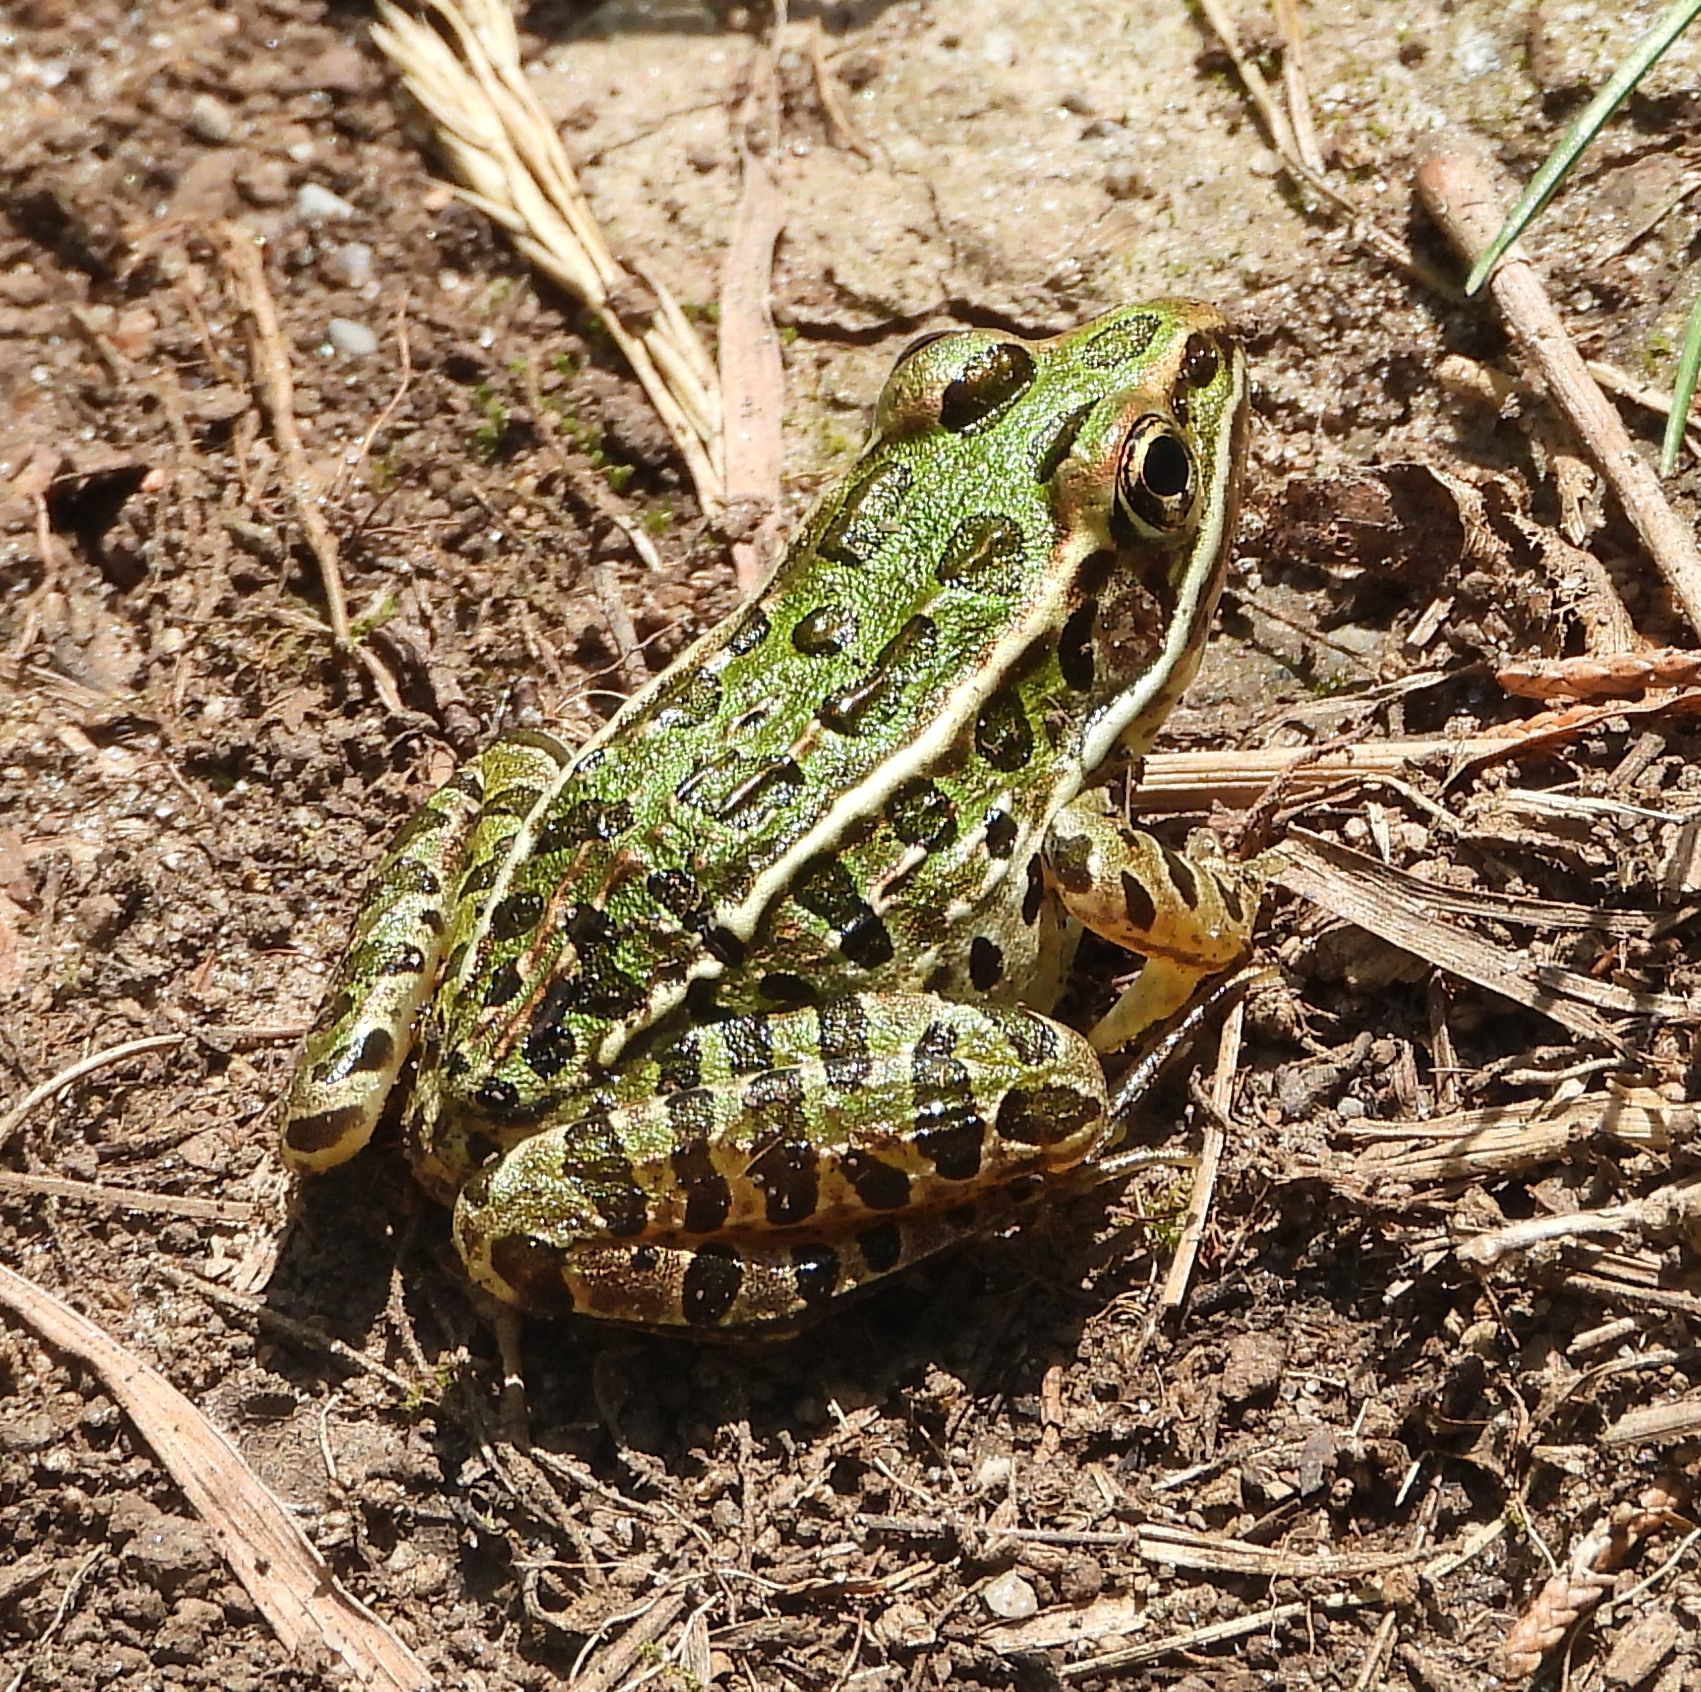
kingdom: Animalia
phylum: Chordata
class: Amphibia
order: Anura
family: Ranidae
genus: Lithobates
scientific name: Lithobates pipiens
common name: Northern leopard frog
